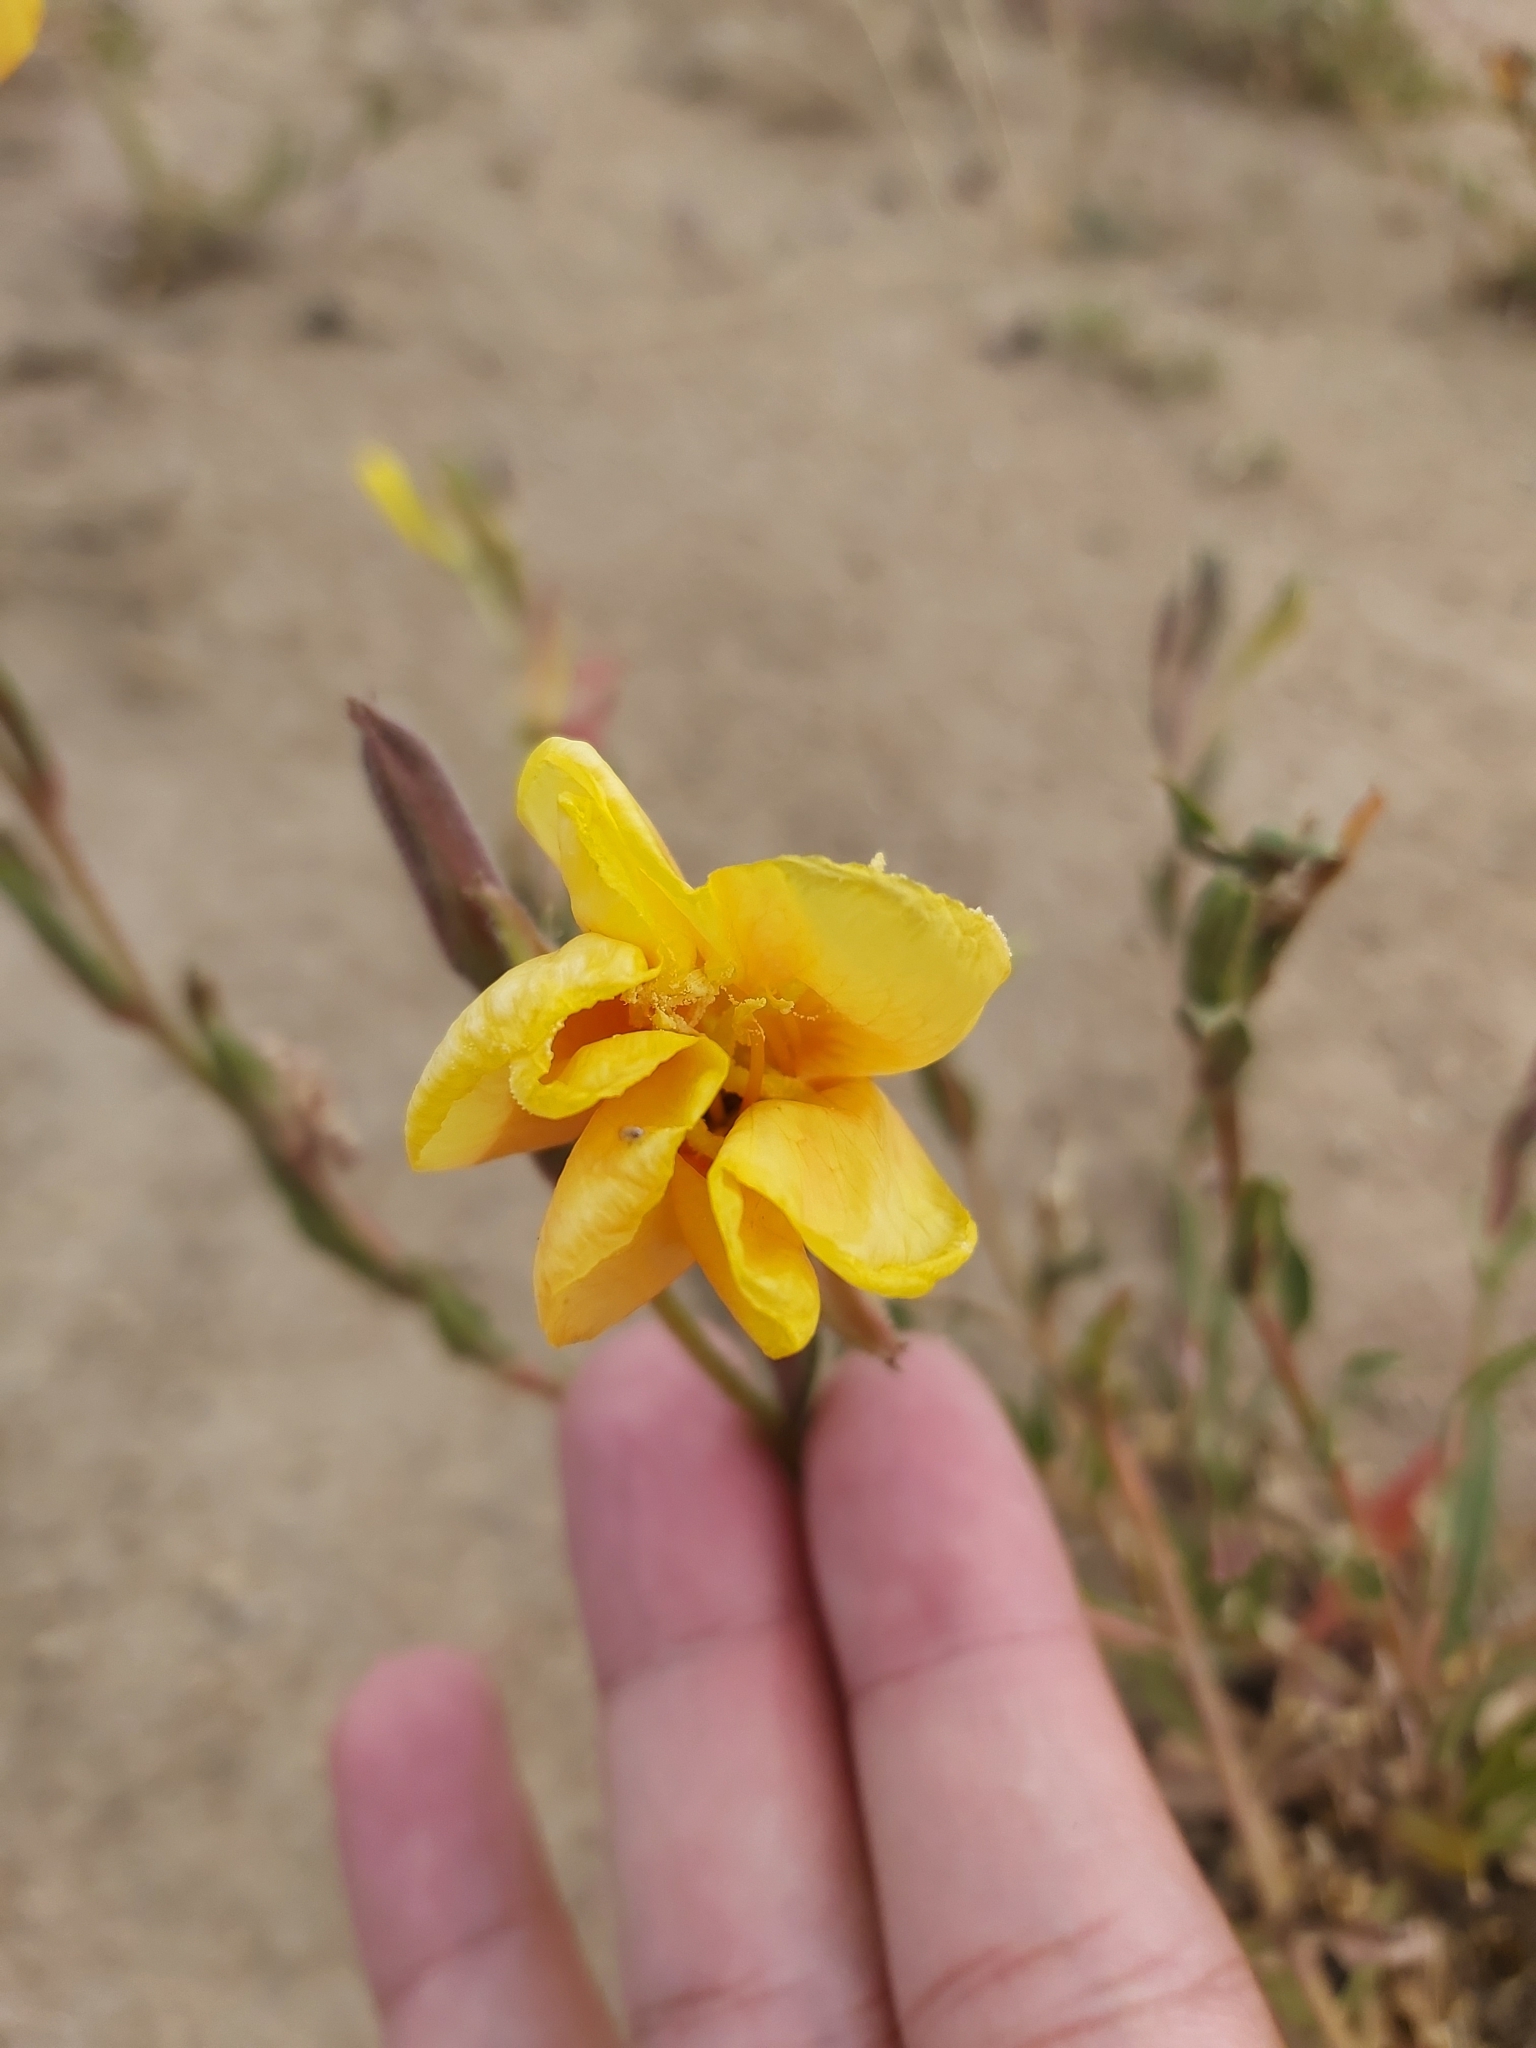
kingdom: Plantae
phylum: Tracheophyta
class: Magnoliopsida
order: Myrtales
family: Onagraceae
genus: Oenothera
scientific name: Oenothera stricta
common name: Fragrant evening-primrose
